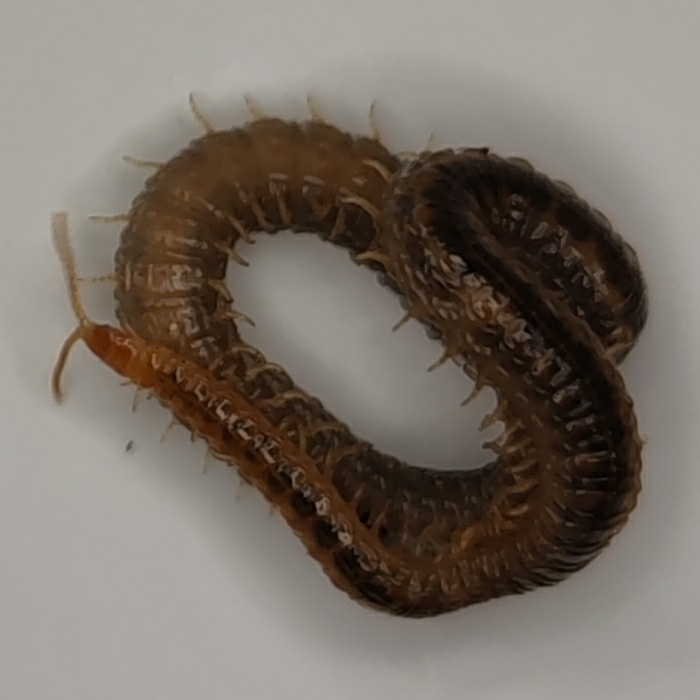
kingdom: Animalia
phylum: Arthropoda
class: Chilopoda
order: Geophilomorpha
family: Dignathodontidae
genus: Henia
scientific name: Henia vesuviana
